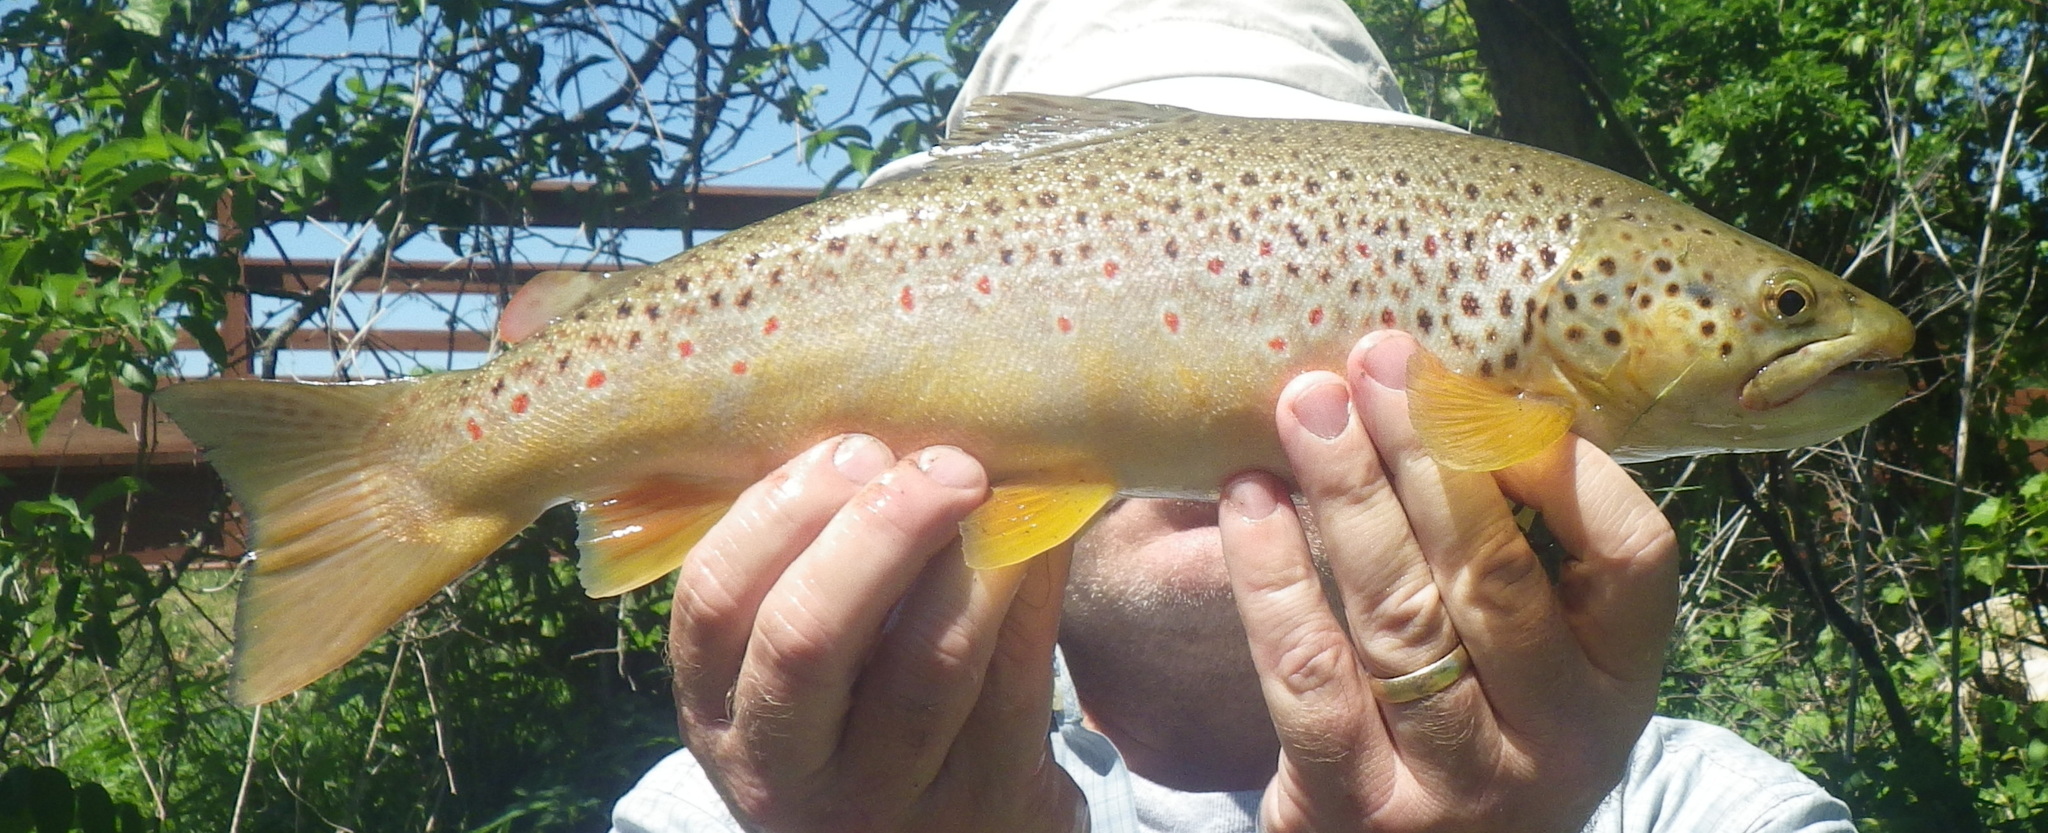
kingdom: Animalia
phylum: Chordata
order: Salmoniformes
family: Salmonidae
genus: Salmo
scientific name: Salmo trutta
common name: Brown trout
